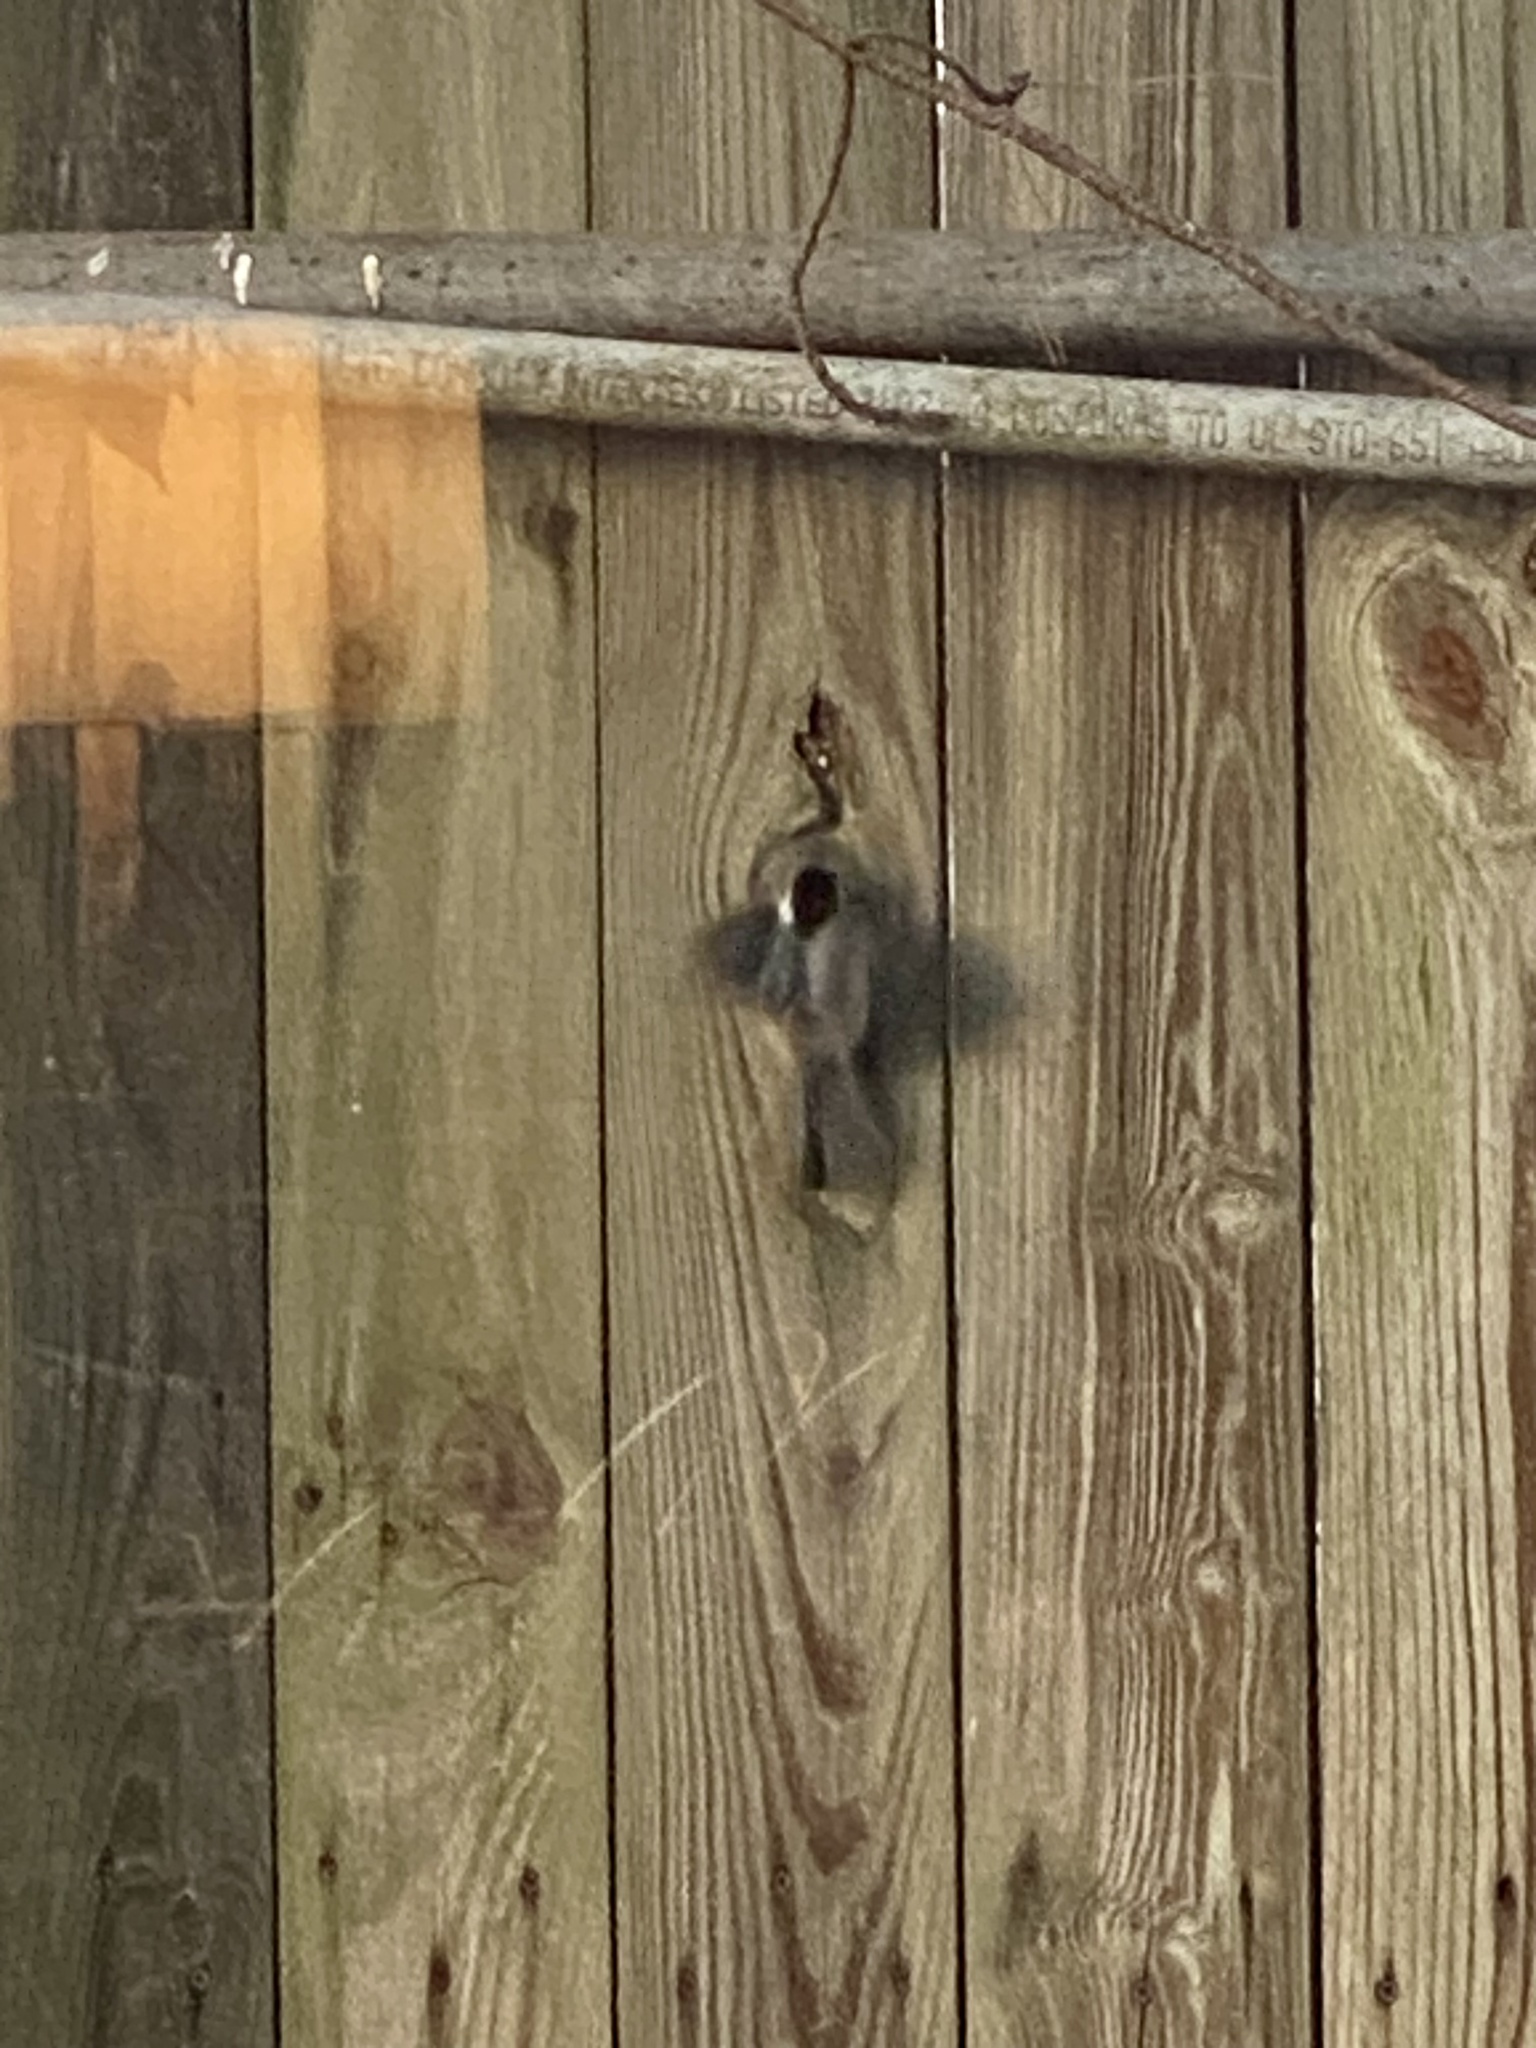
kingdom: Animalia
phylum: Chordata
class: Aves
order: Passeriformes
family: Paridae
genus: Poecile
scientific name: Poecile atricapillus
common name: Black-capped chickadee
